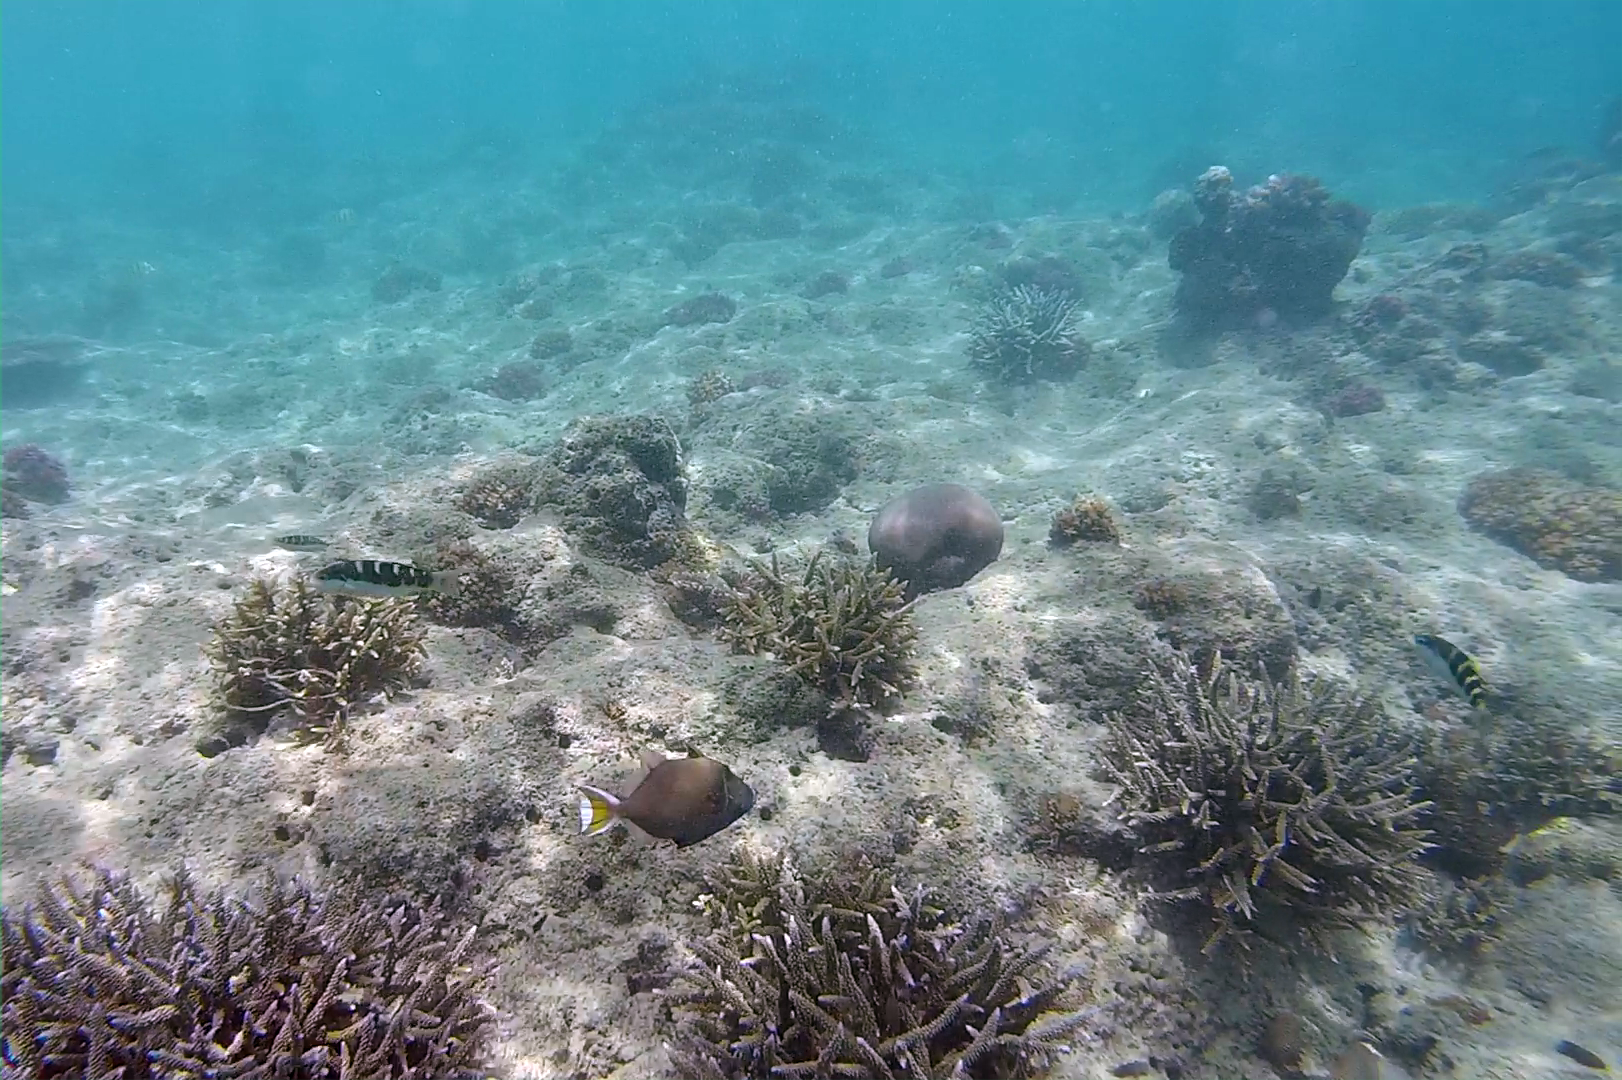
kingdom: Animalia
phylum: Chordata
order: Tetraodontiformes
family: Balistidae
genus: Sufflamen
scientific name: Sufflamen chrysopterum
